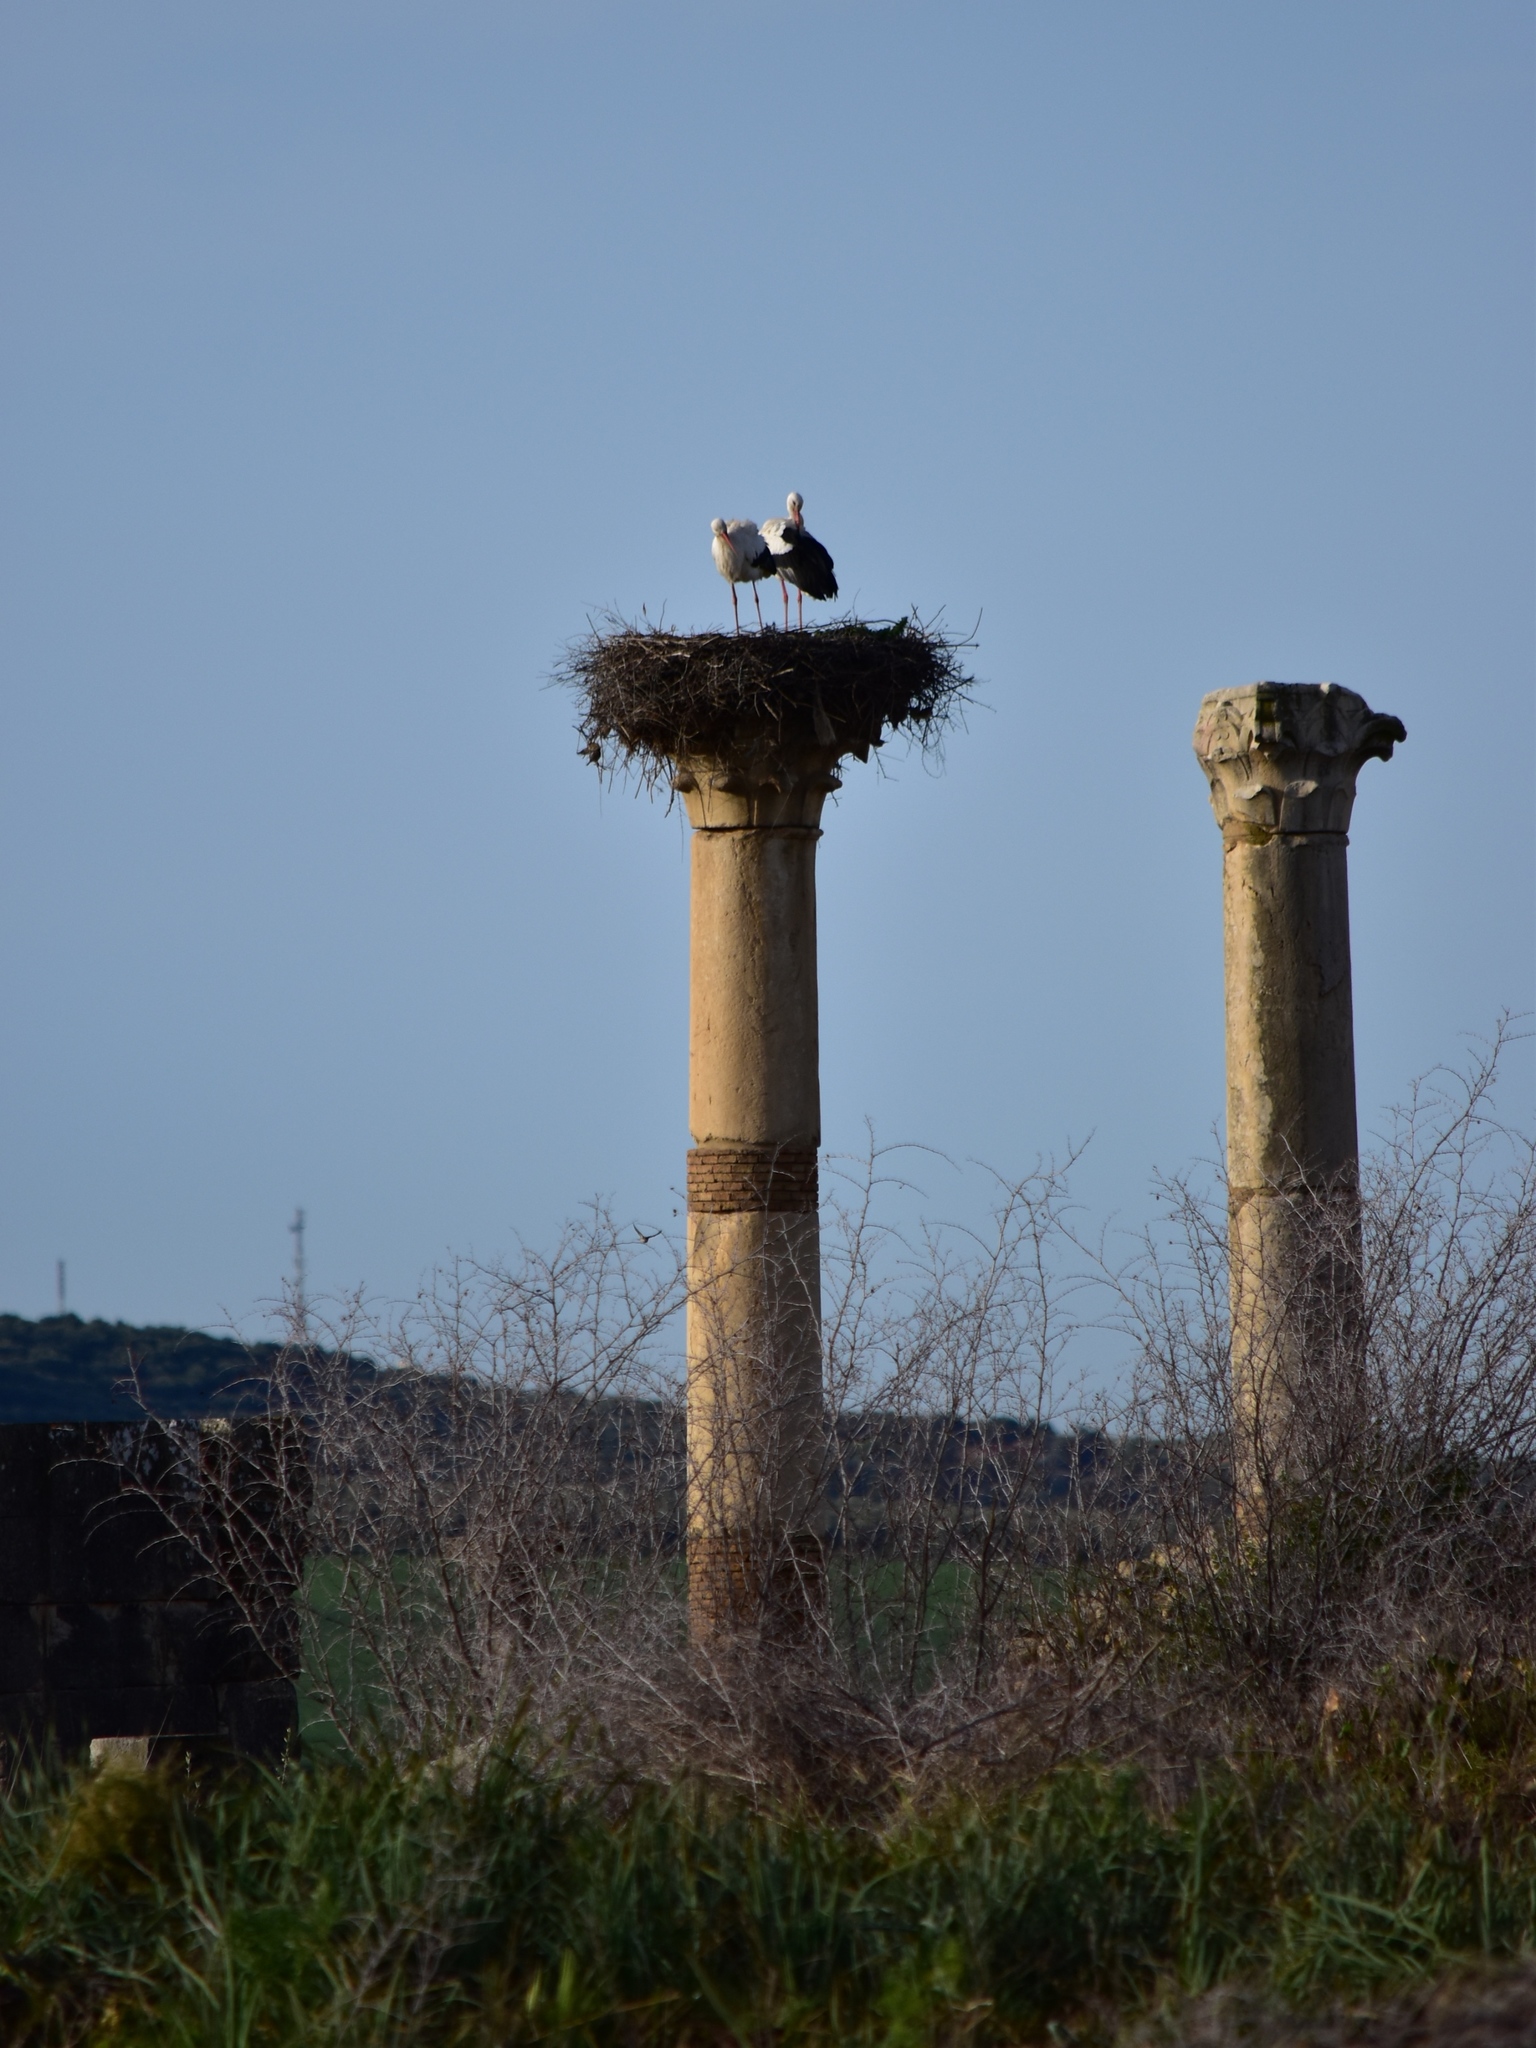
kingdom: Animalia
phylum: Chordata
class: Aves
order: Ciconiiformes
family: Ciconiidae
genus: Ciconia
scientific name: Ciconia ciconia
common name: White stork
